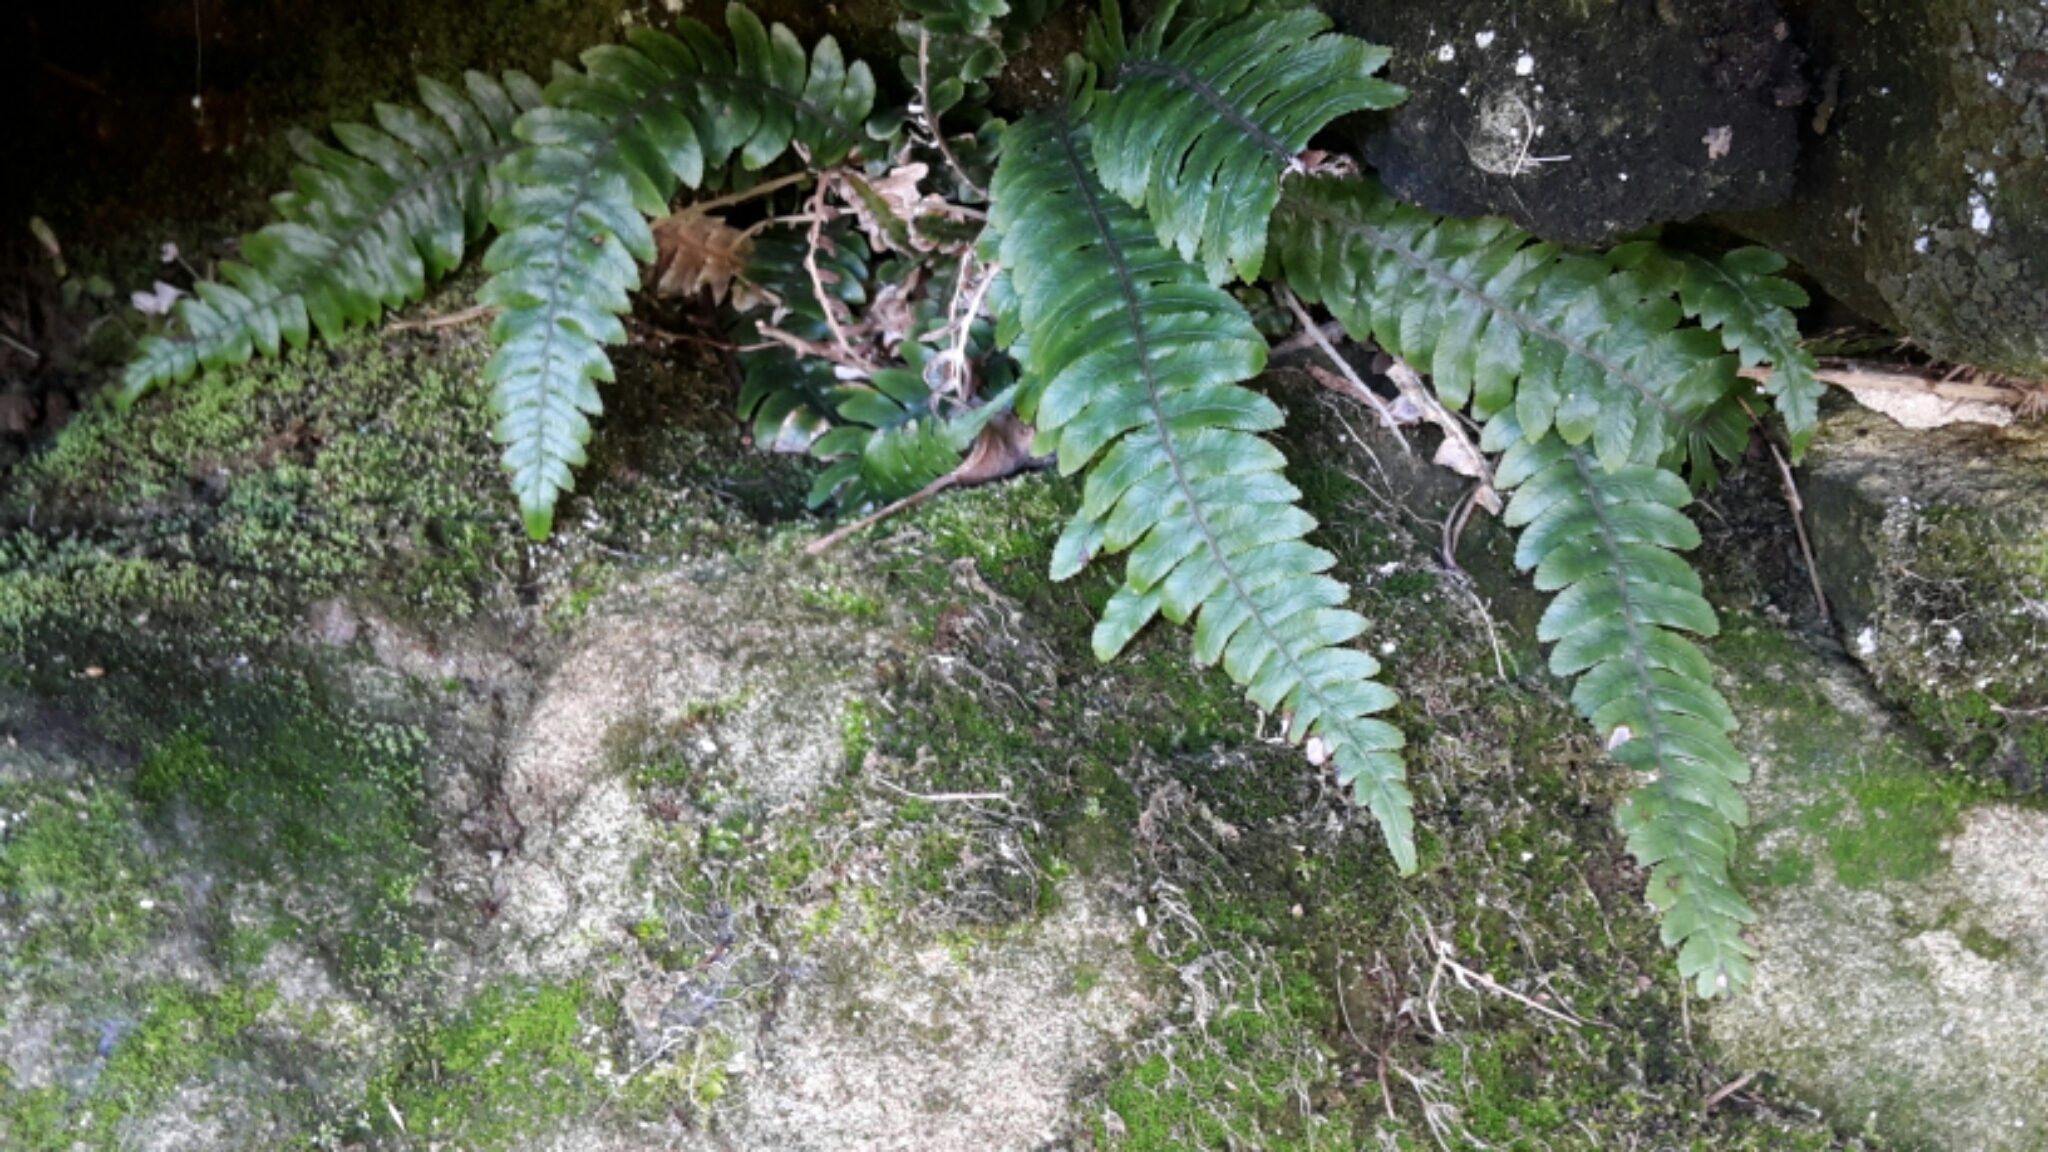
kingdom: Plantae
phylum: Tracheophyta
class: Polypodiopsida
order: Polypodiales
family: Blechnaceae
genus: Austroblechnum
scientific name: Austroblechnum lanceolatum
